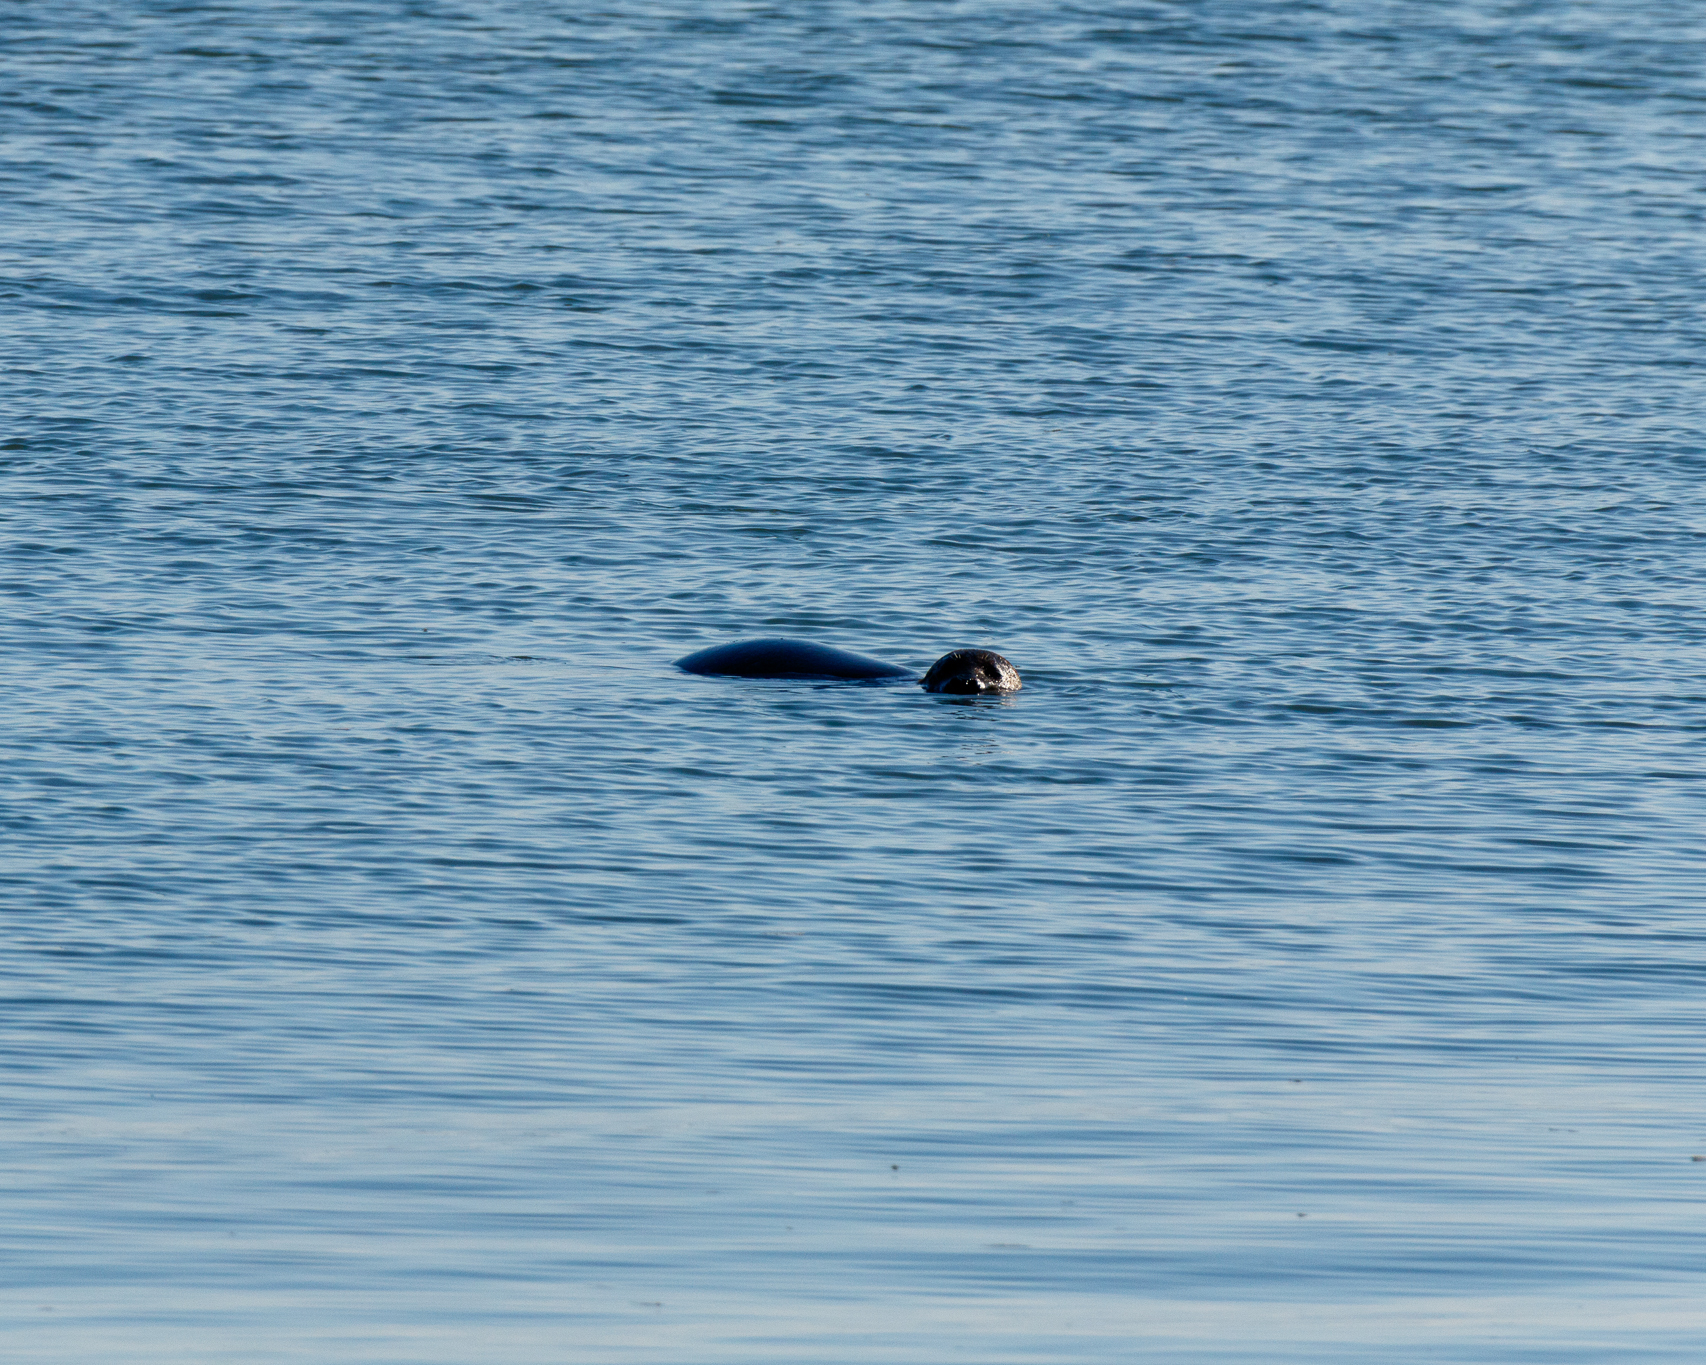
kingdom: Animalia
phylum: Chordata
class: Mammalia
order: Carnivora
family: Phocidae
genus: Phoca
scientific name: Phoca vitulina
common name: Harbor seal
